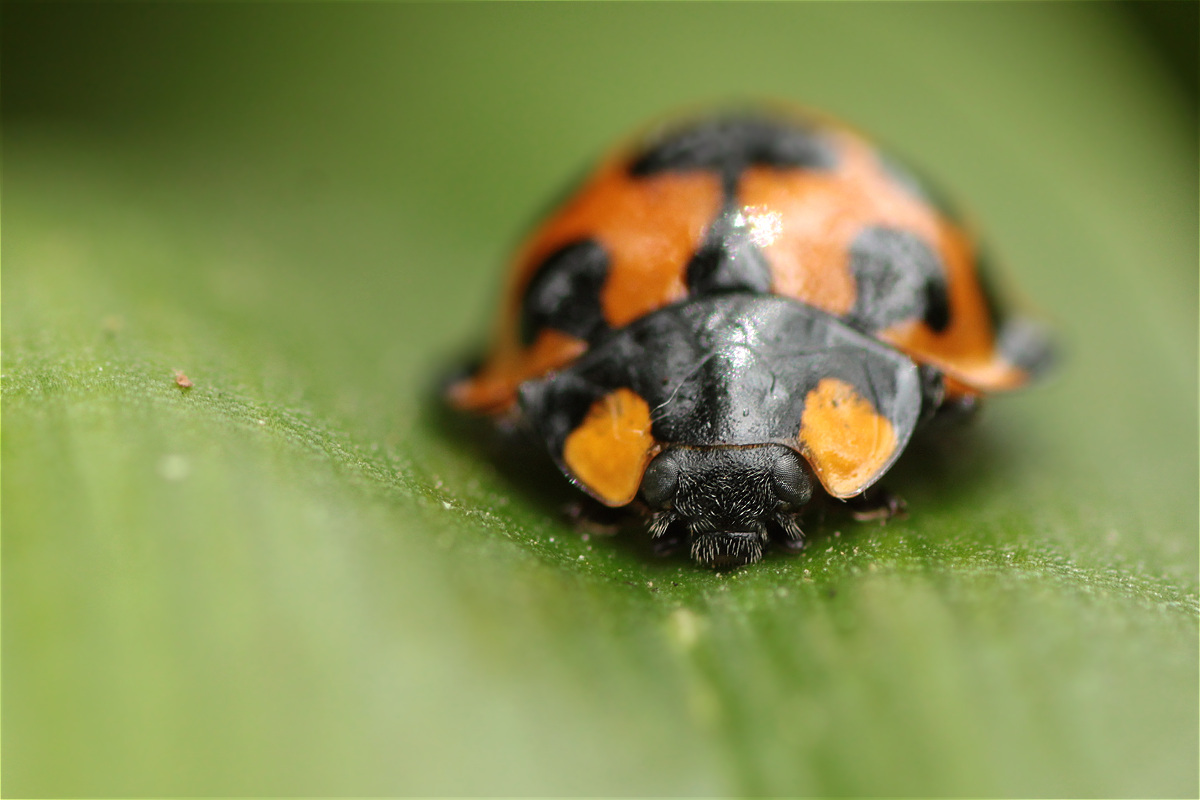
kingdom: Animalia
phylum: Arthropoda
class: Insecta
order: Coleoptera
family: Coccinellidae
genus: Anatis
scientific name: Anatis
